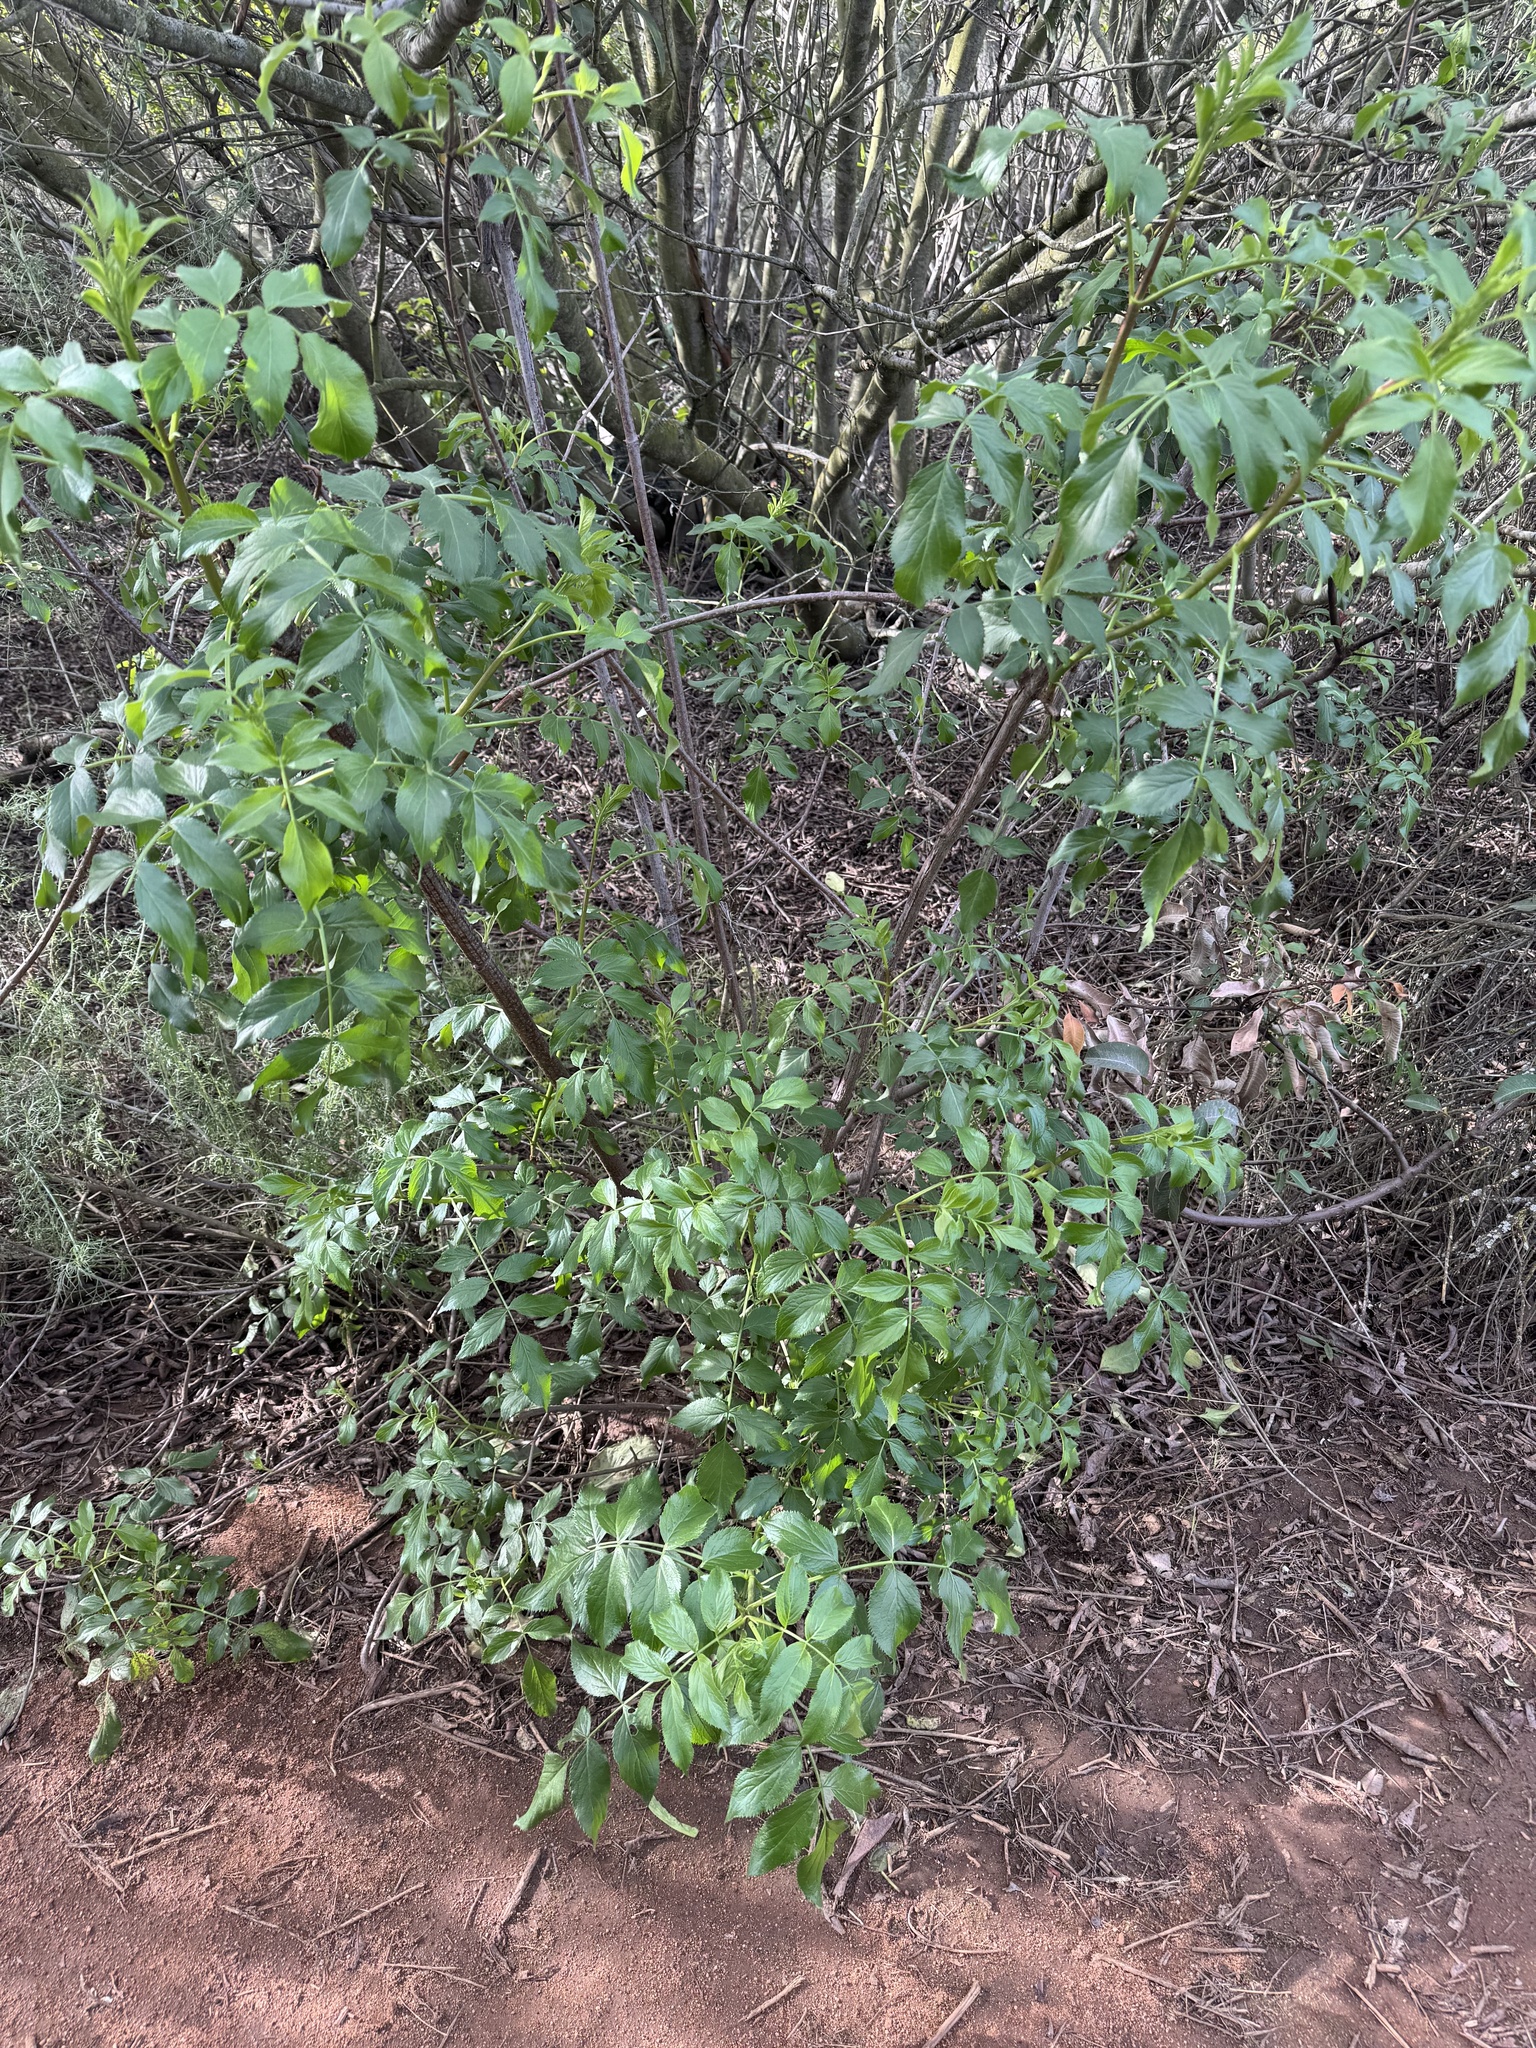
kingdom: Plantae
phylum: Tracheophyta
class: Magnoliopsida
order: Dipsacales
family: Viburnaceae
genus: Sambucus
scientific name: Sambucus cerulea
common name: Blue elder
